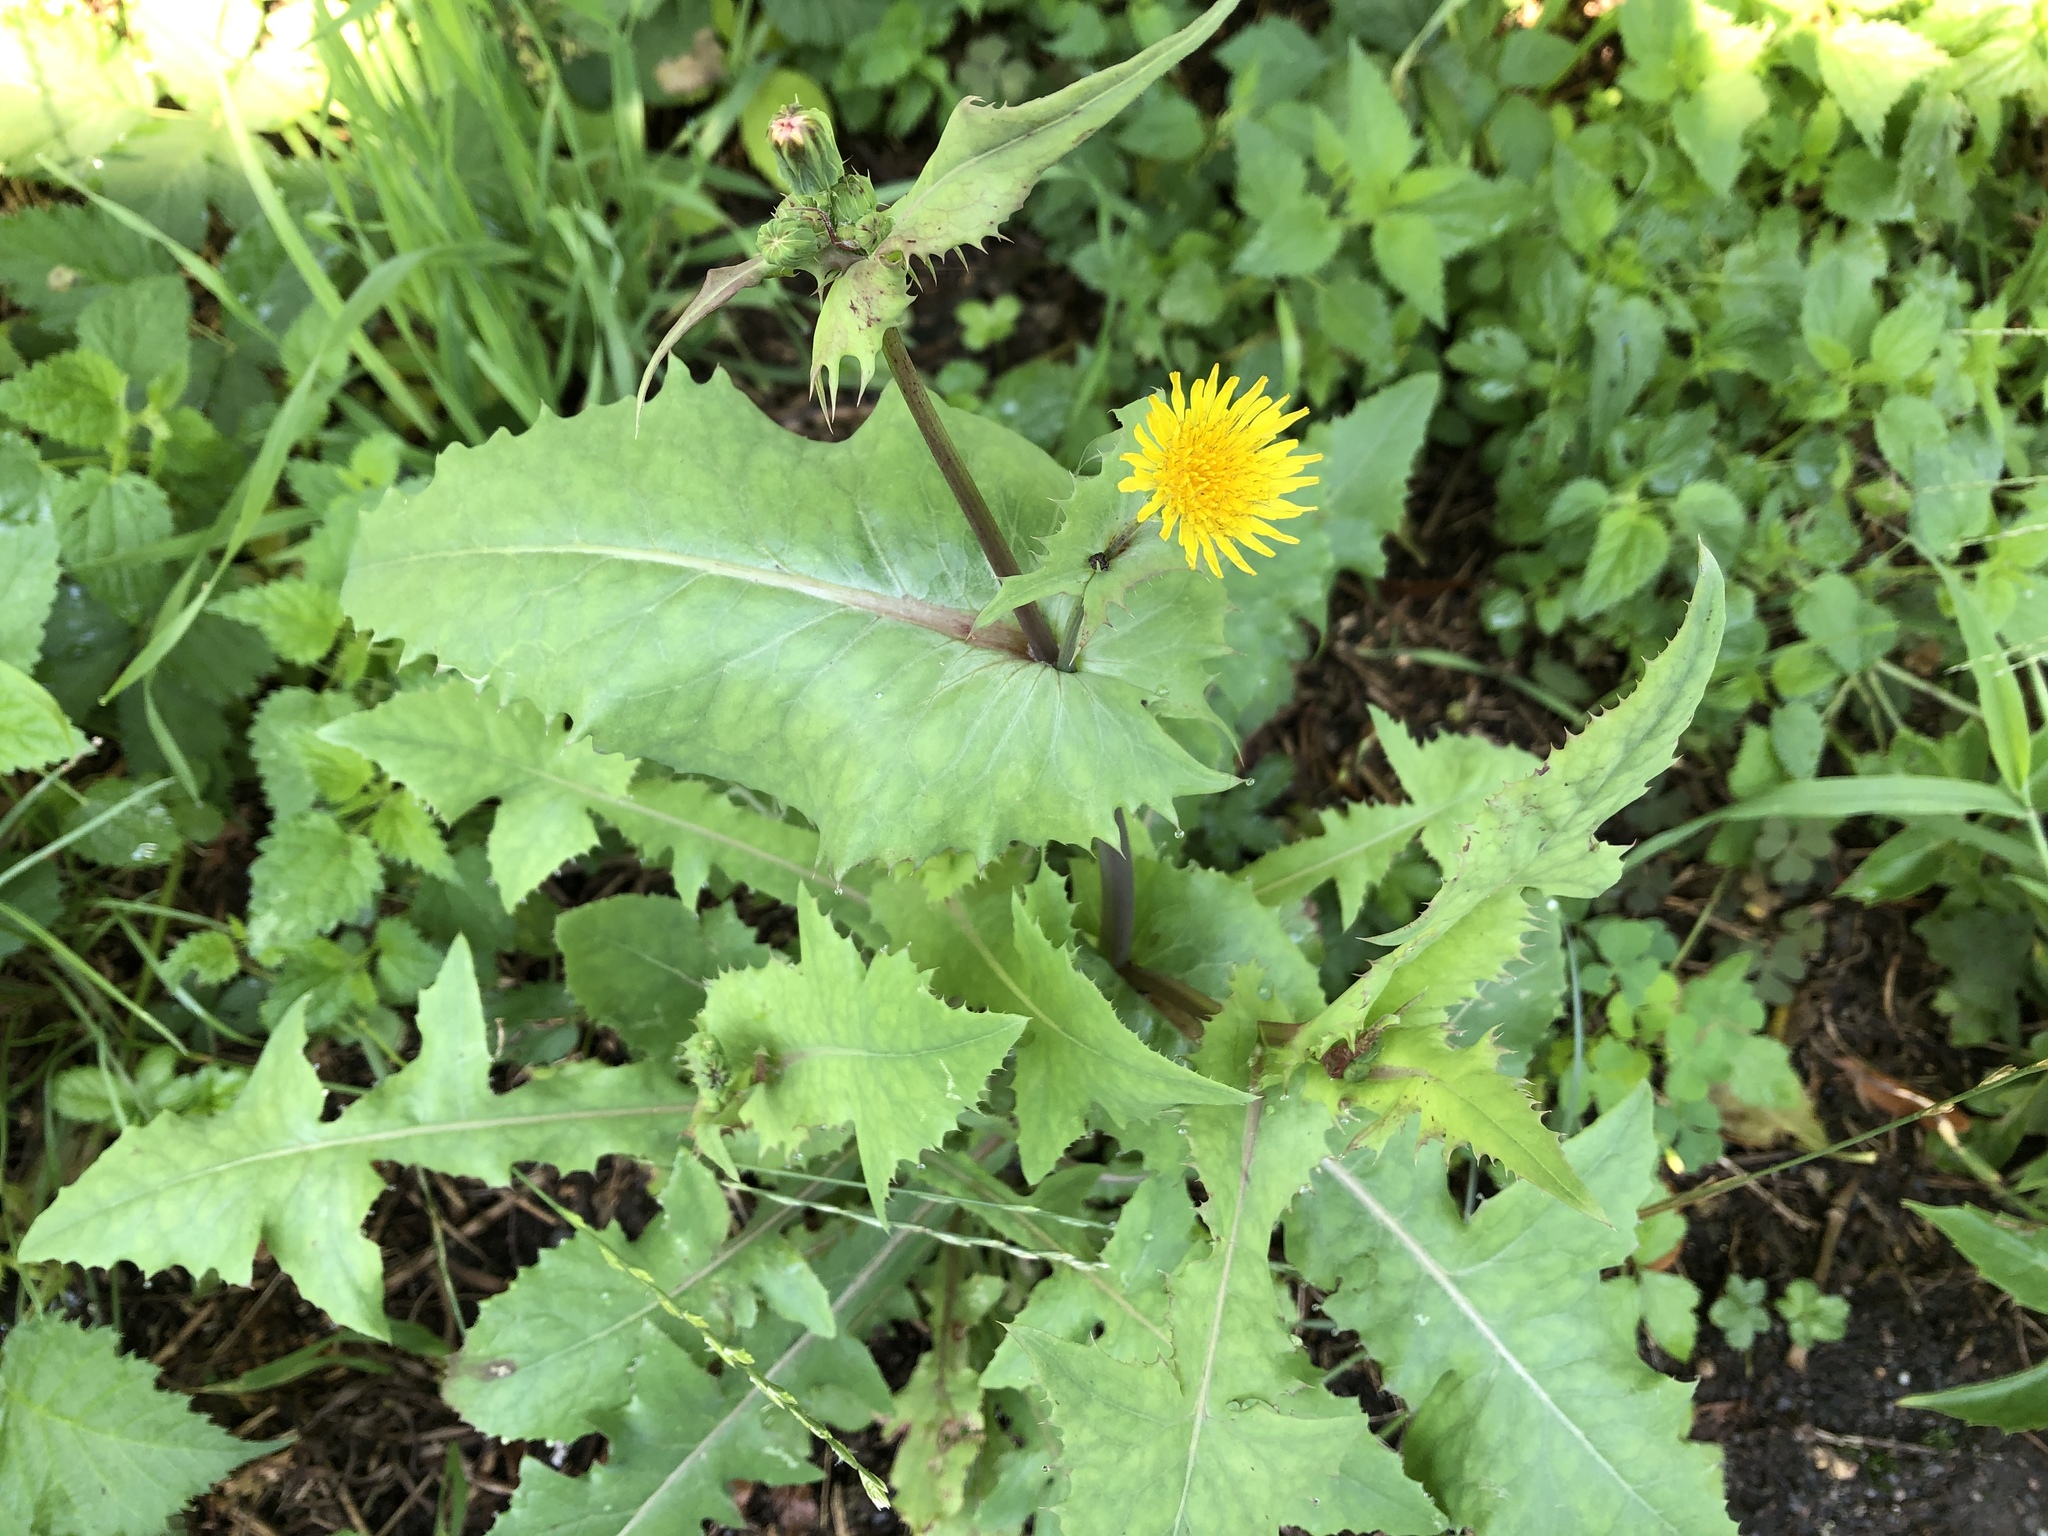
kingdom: Plantae
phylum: Tracheophyta
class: Magnoliopsida
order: Asterales
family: Asteraceae
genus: Sonchus
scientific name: Sonchus oleraceus
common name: Common sowthistle
